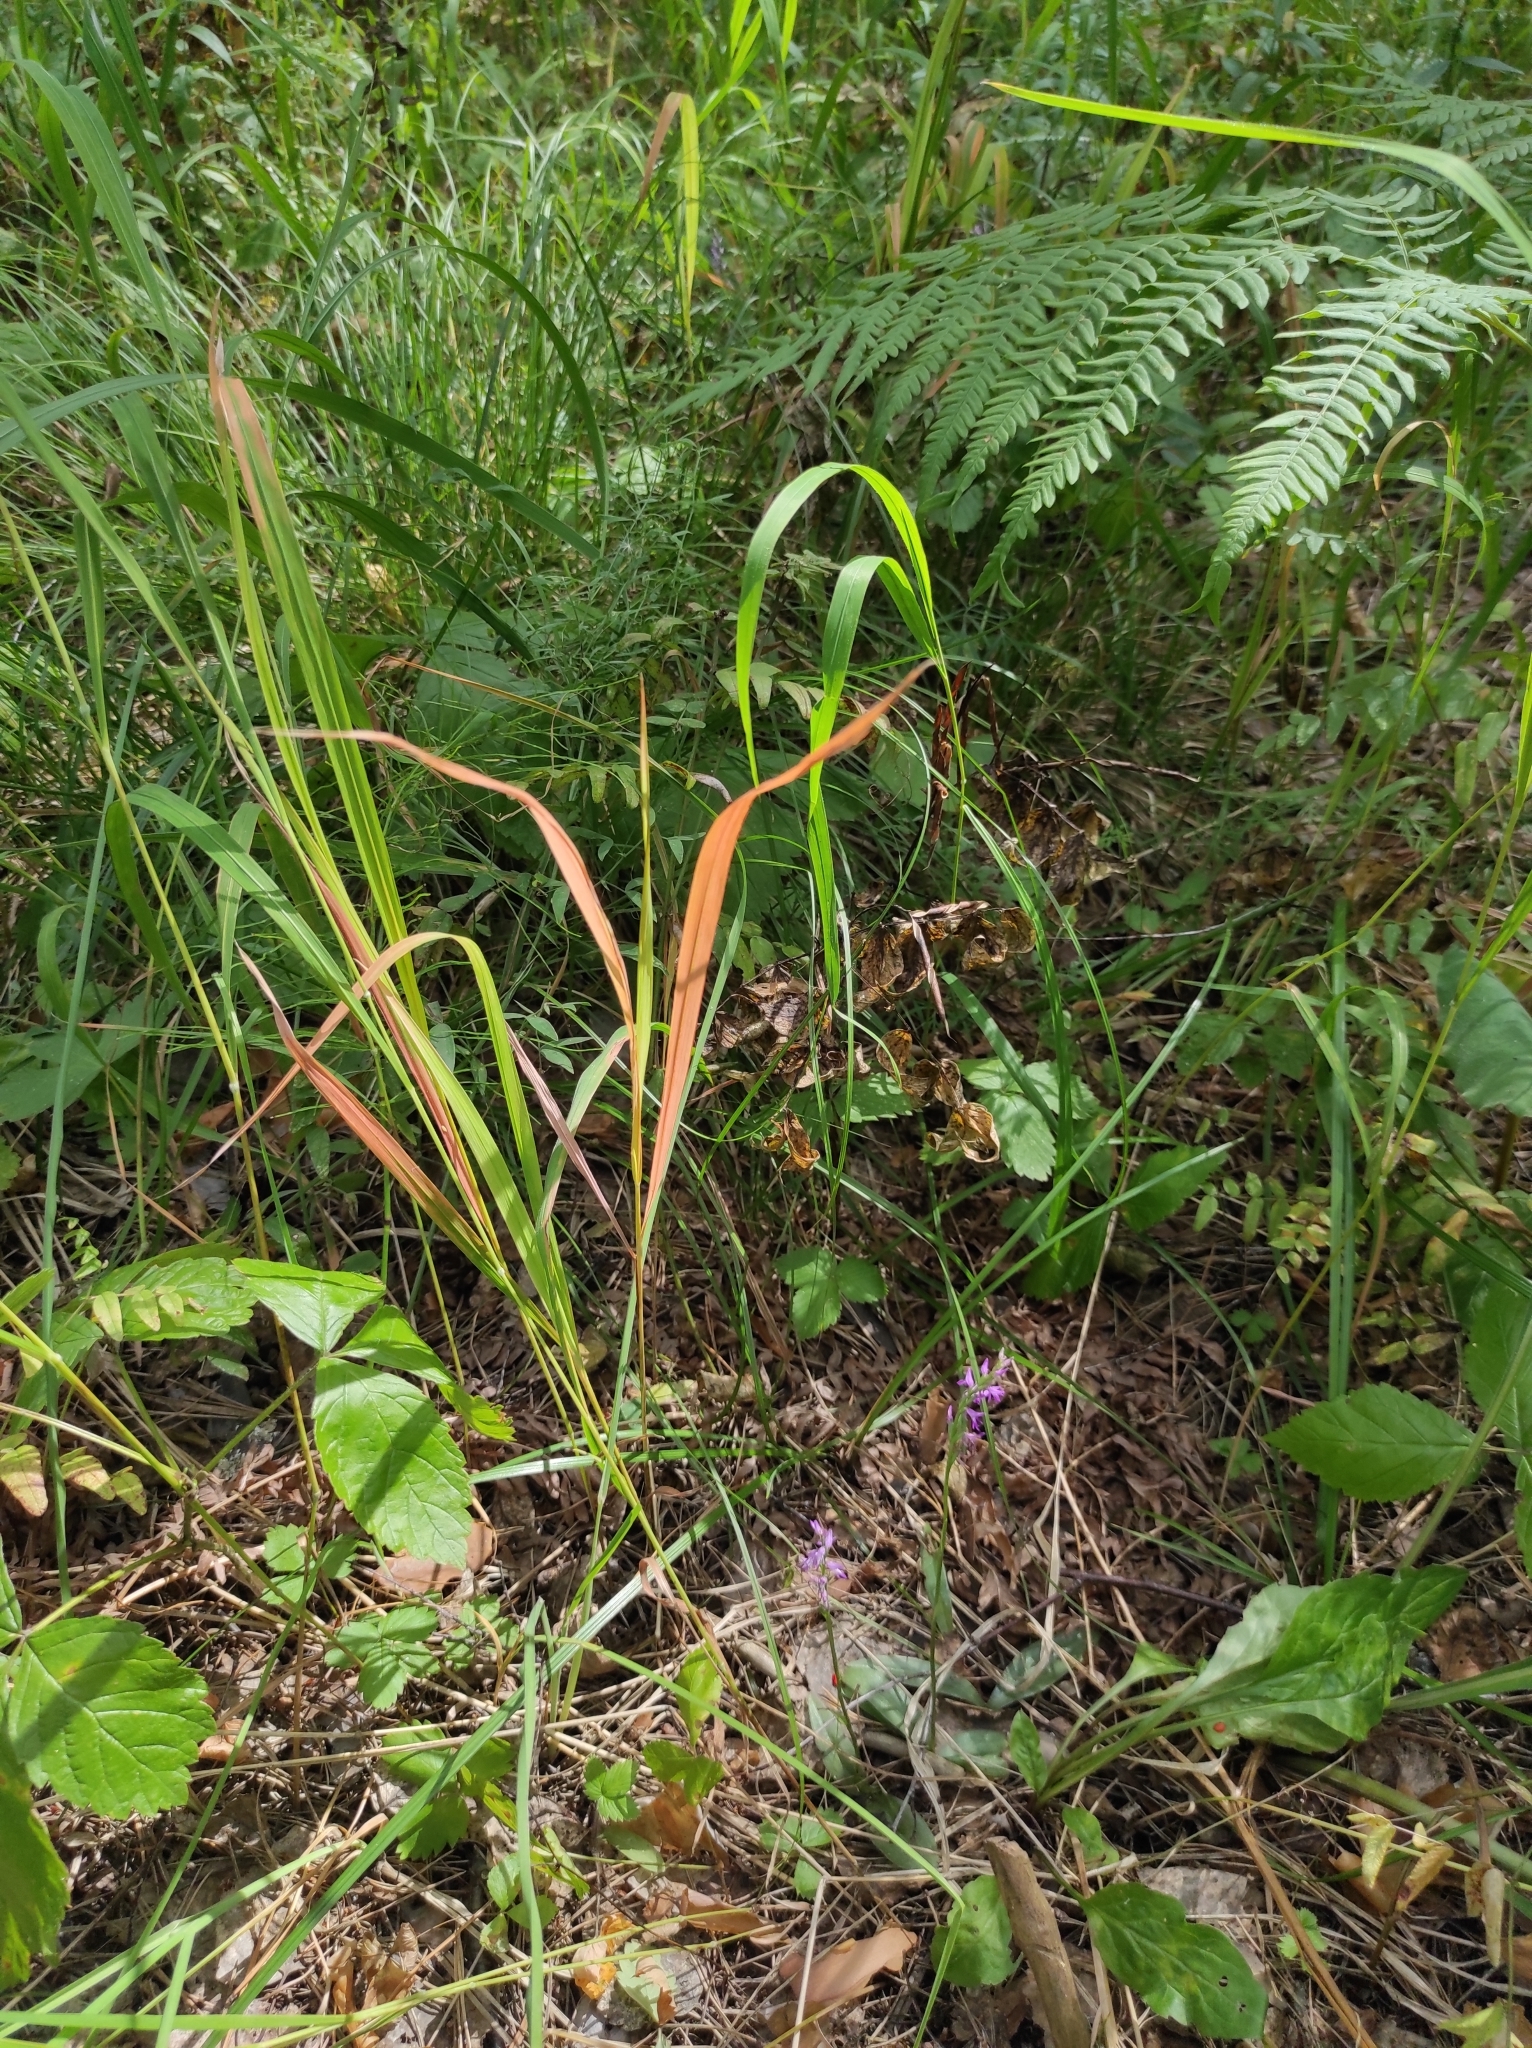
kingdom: Plantae
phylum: Tracheophyta
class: Liliopsida
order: Asparagales
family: Orchidaceae
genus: Hemipilia
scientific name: Hemipilia cucullata
